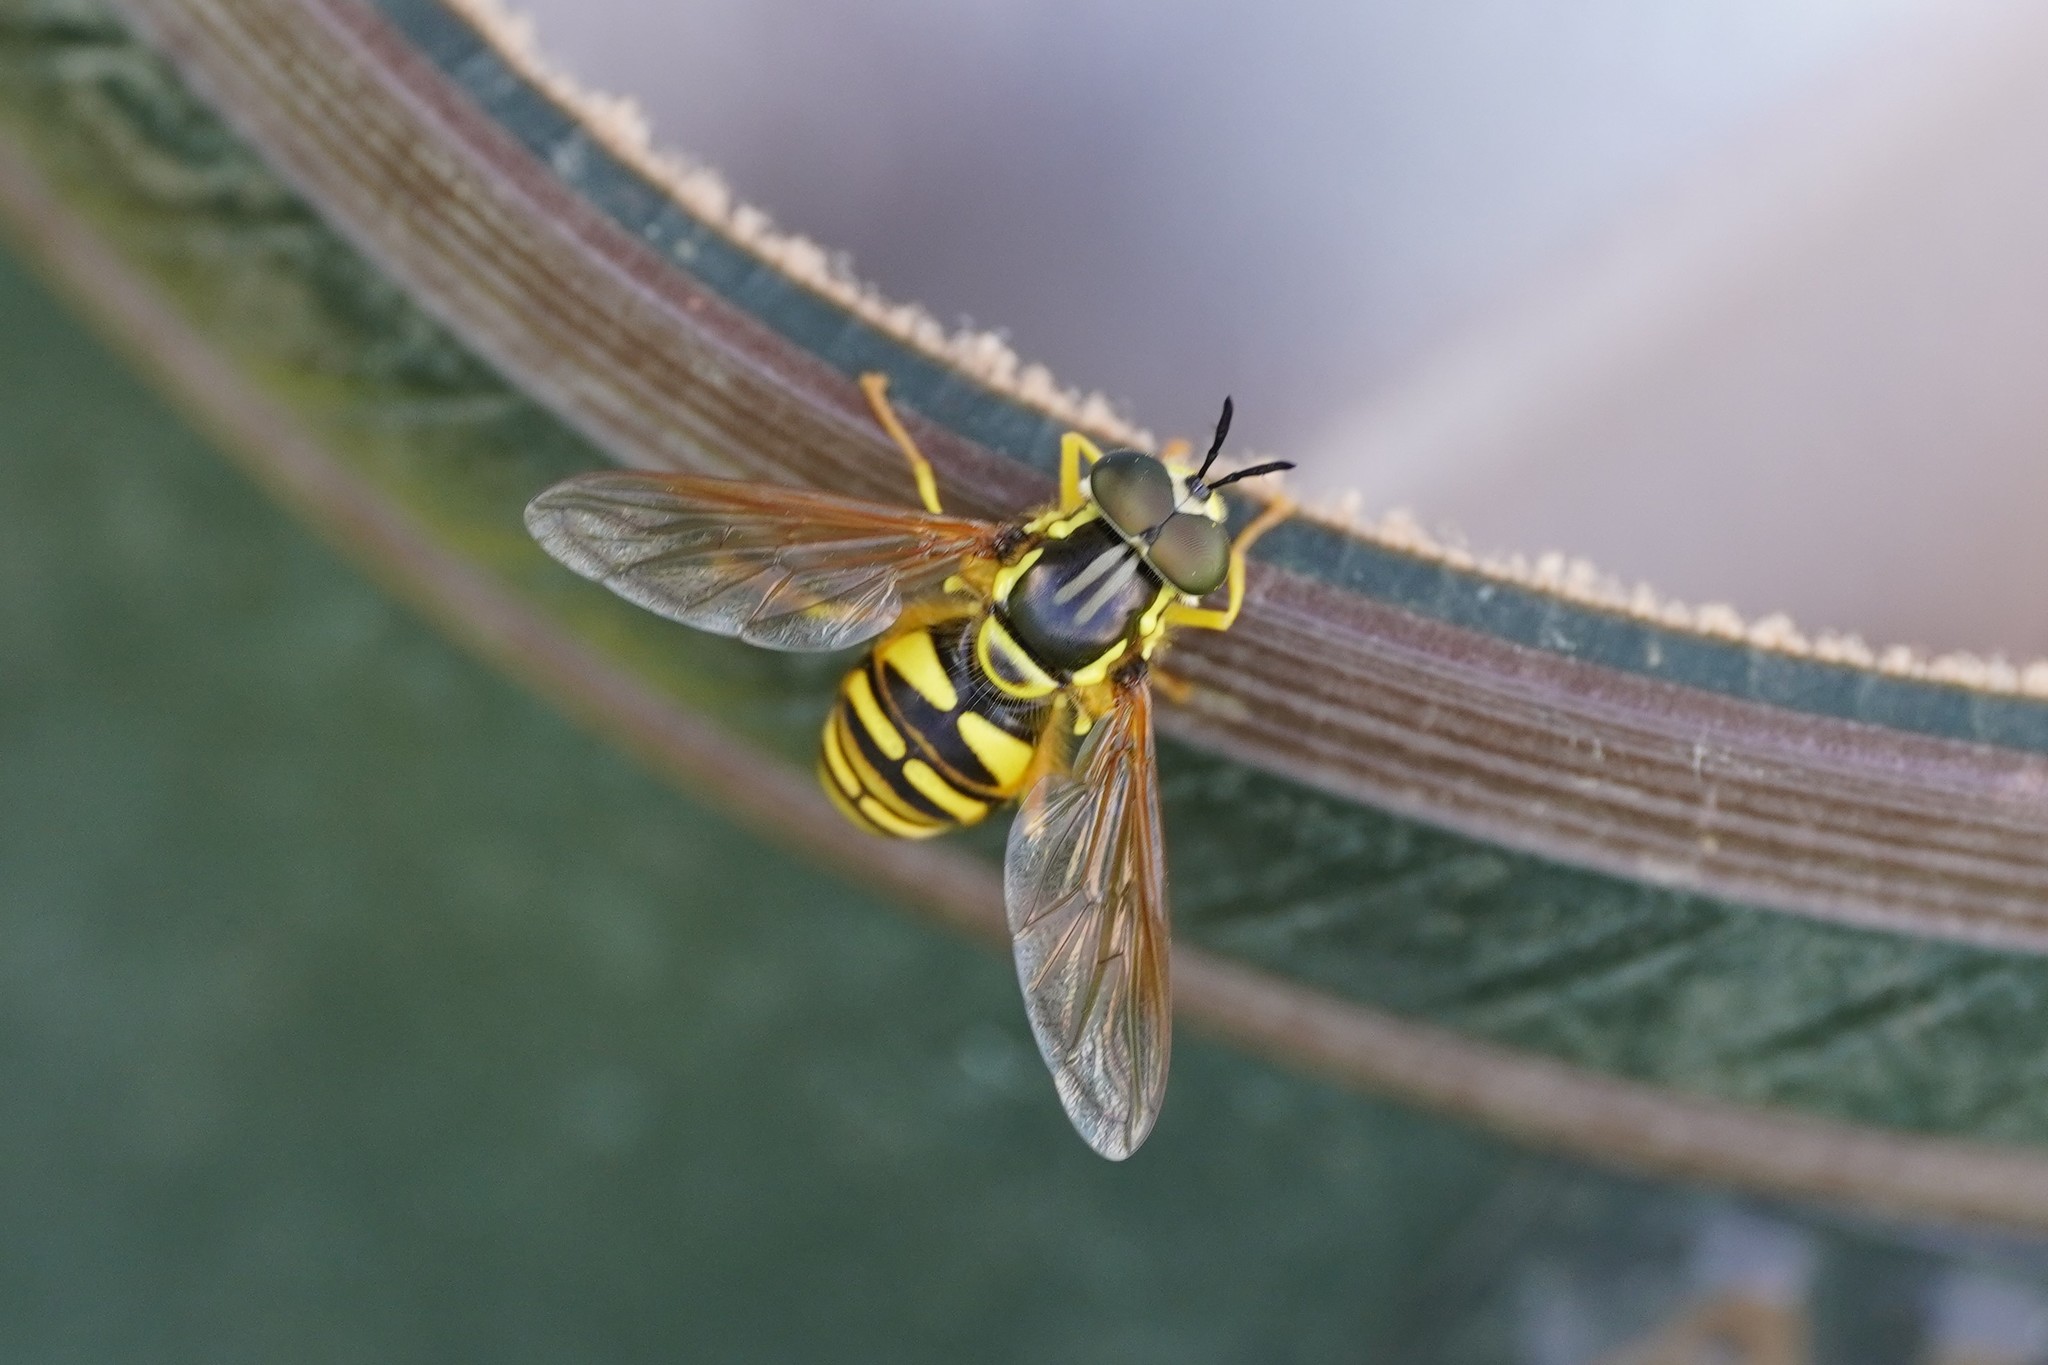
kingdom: Animalia
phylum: Arthropoda
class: Insecta
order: Diptera
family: Syrphidae
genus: Chrysotoxum
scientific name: Chrysotoxum verralli
